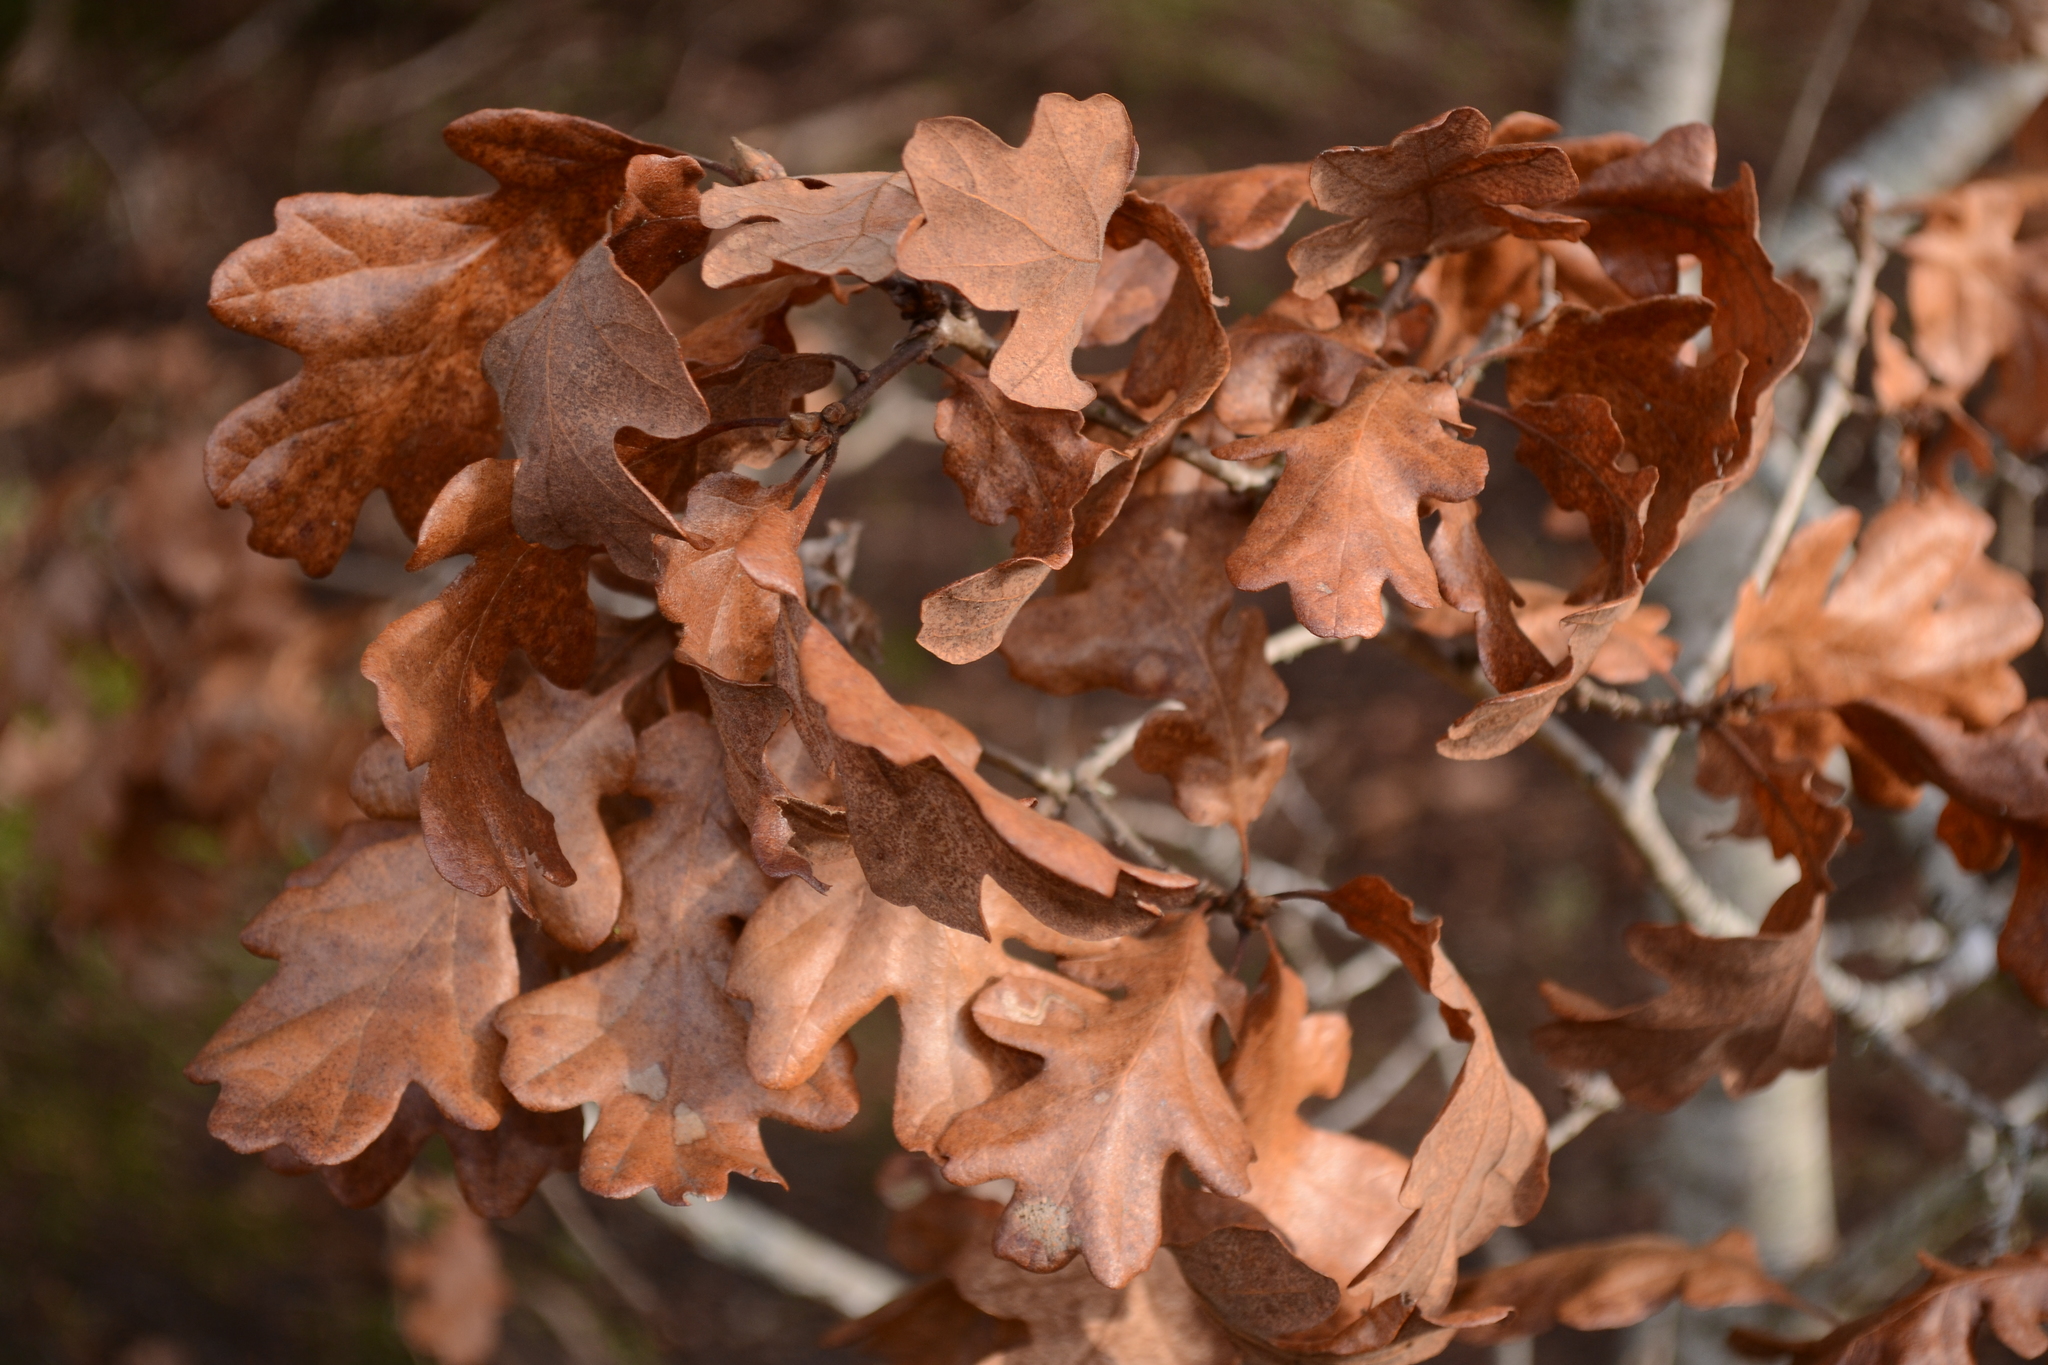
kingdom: Plantae
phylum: Tracheophyta
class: Magnoliopsida
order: Fagales
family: Fagaceae
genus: Quercus
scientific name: Quercus garryana
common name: Garry oak
